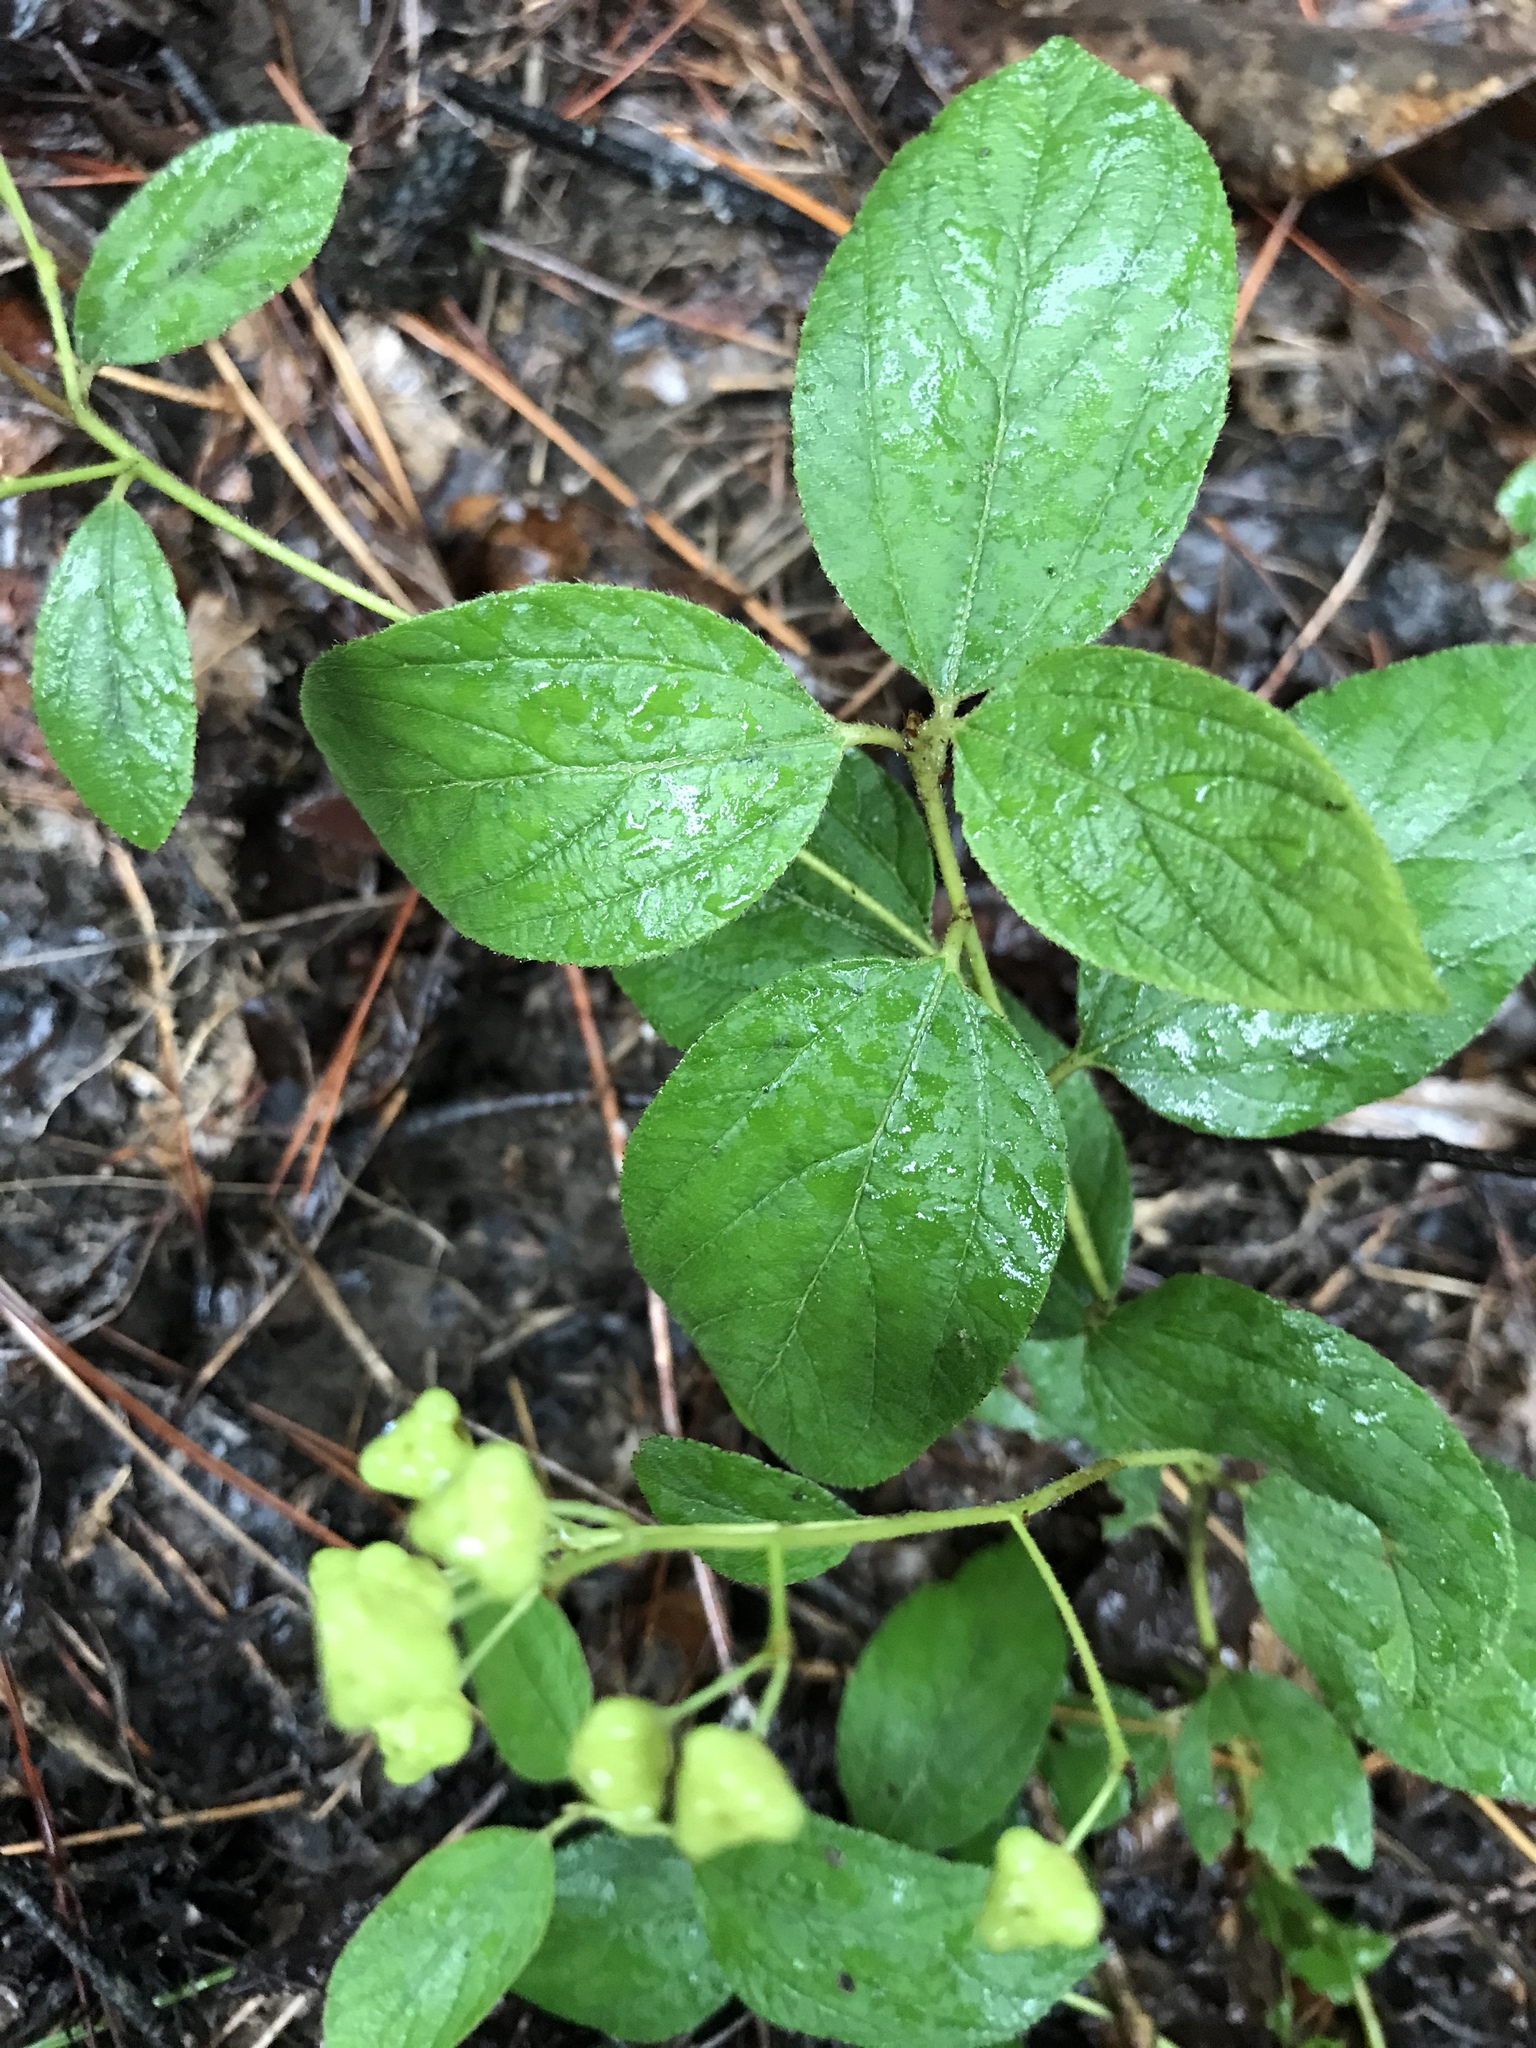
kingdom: Plantae
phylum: Tracheophyta
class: Magnoliopsida
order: Rosales
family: Rhamnaceae
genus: Ceanothus
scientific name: Ceanothus americanus
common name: Redroot
